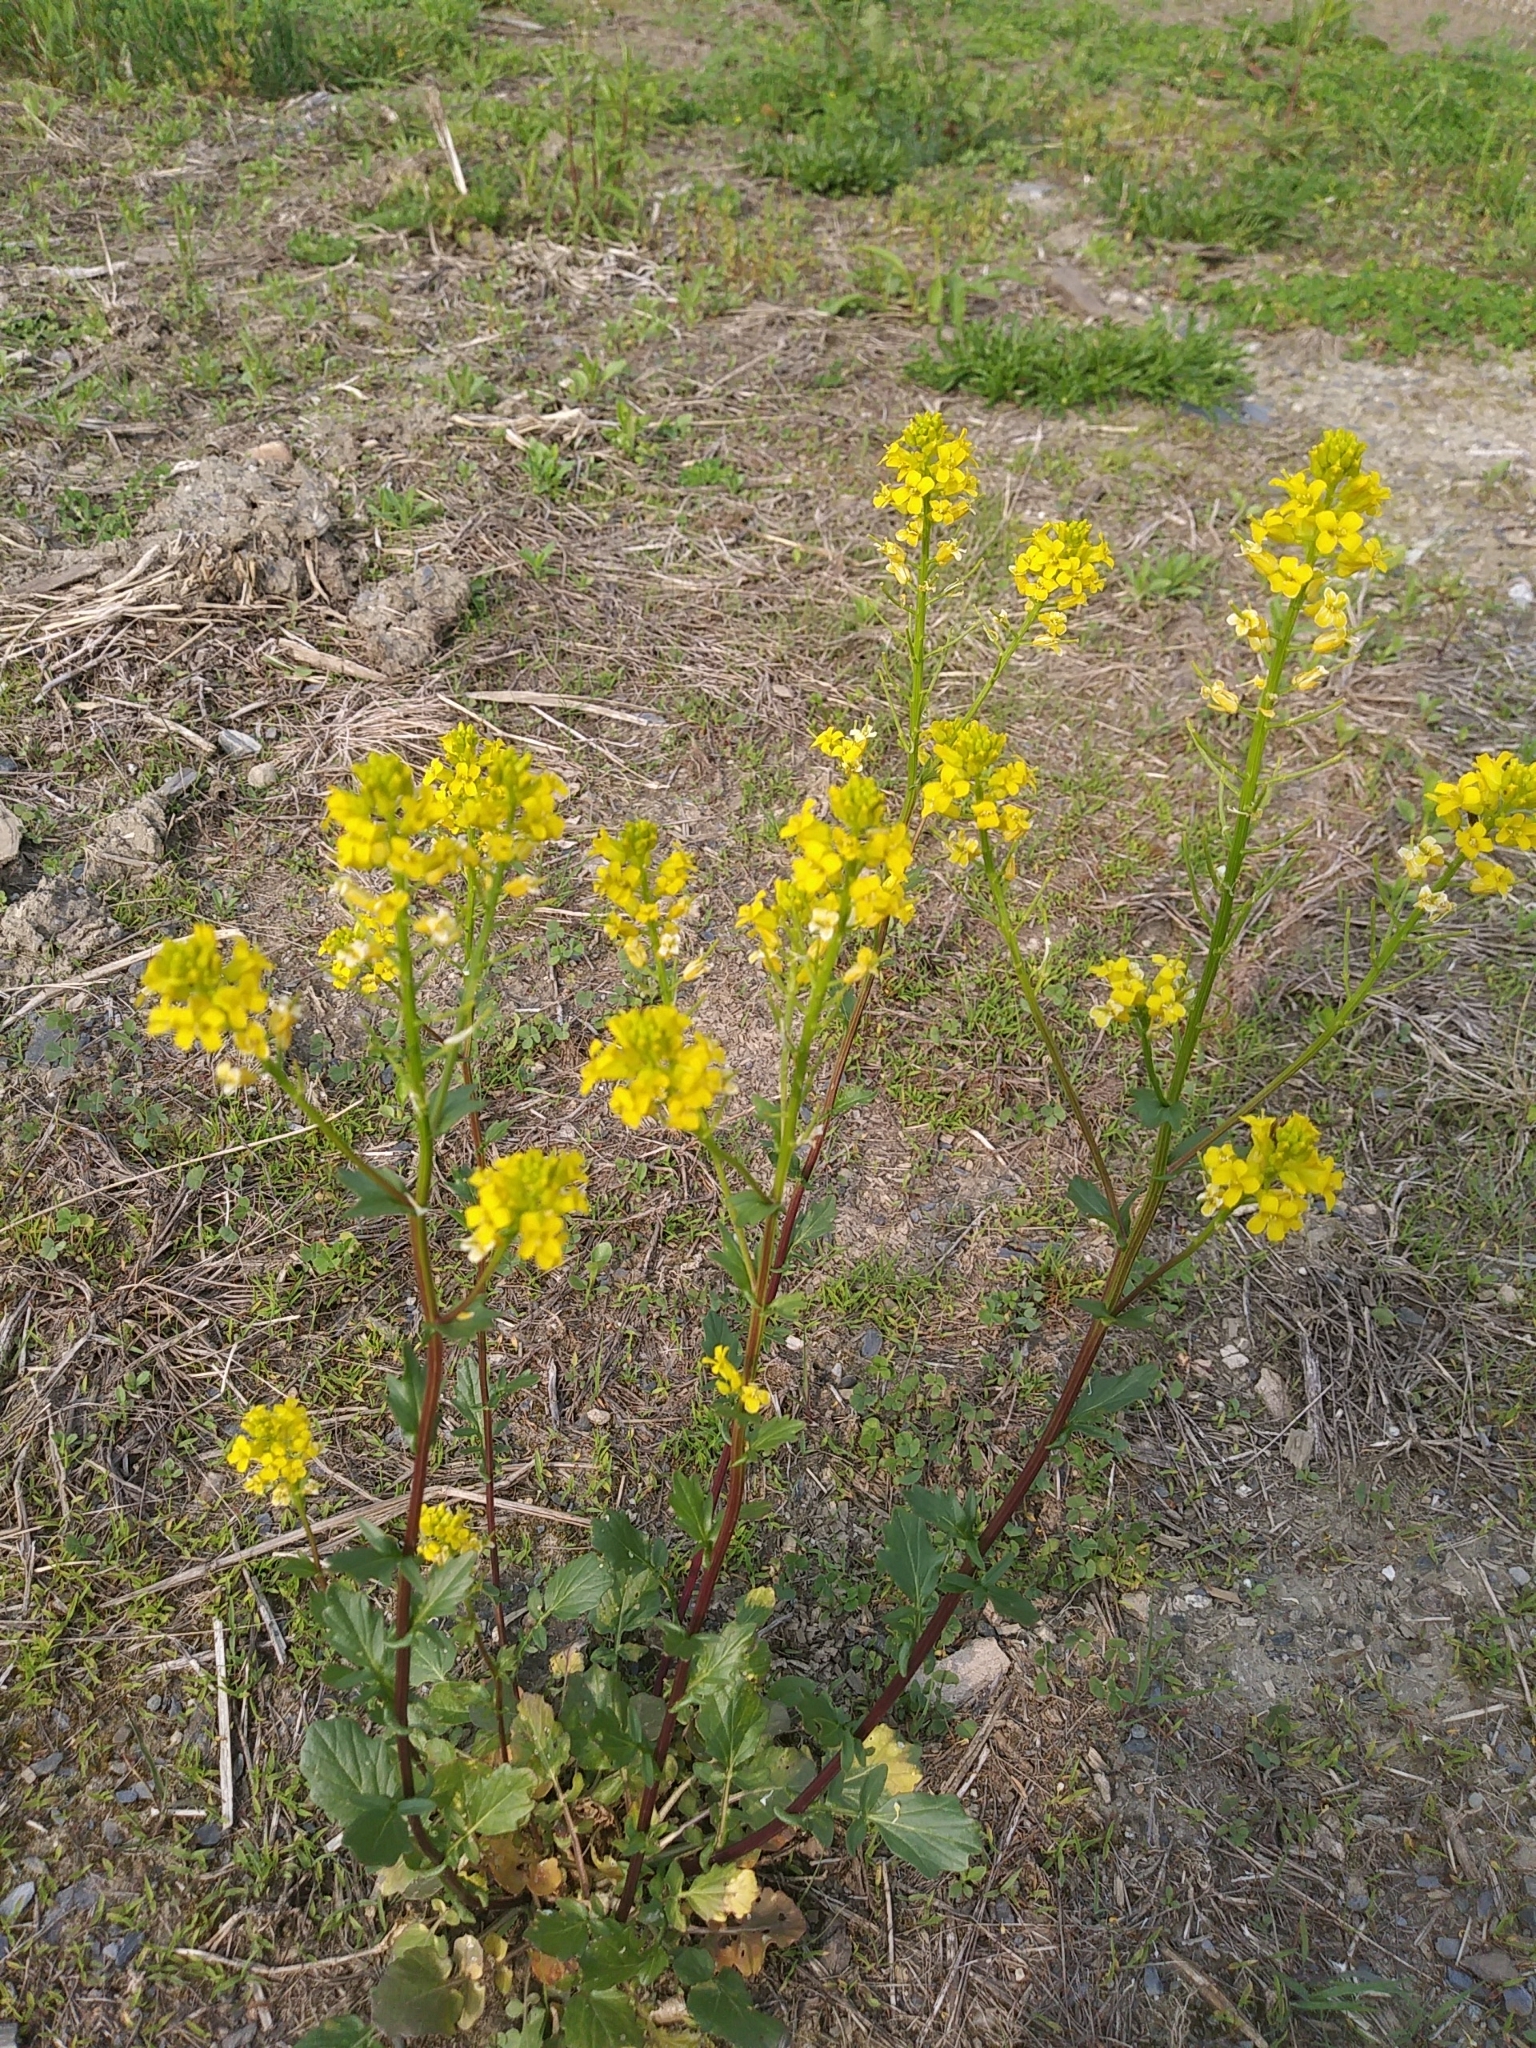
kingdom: Plantae
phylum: Tracheophyta
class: Magnoliopsida
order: Brassicales
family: Brassicaceae
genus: Barbarea
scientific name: Barbarea vulgaris
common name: Cressy-greens
